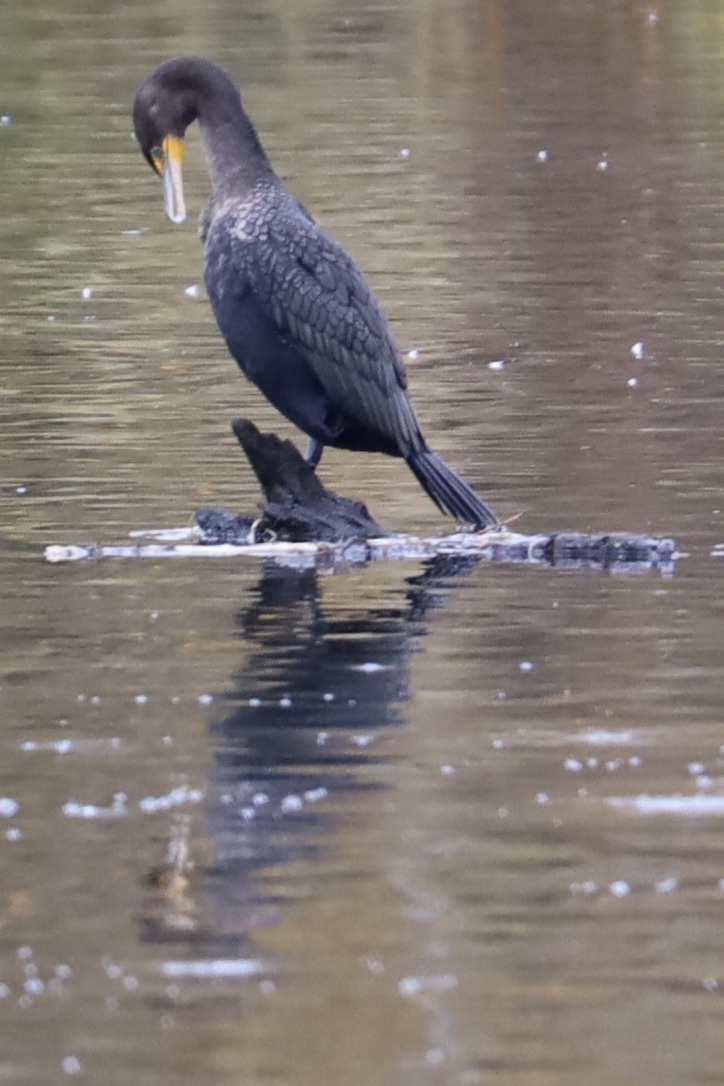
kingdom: Animalia
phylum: Chordata
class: Aves
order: Suliformes
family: Phalacrocoracidae
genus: Phalacrocorax
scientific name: Phalacrocorax auritus
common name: Double-crested cormorant
